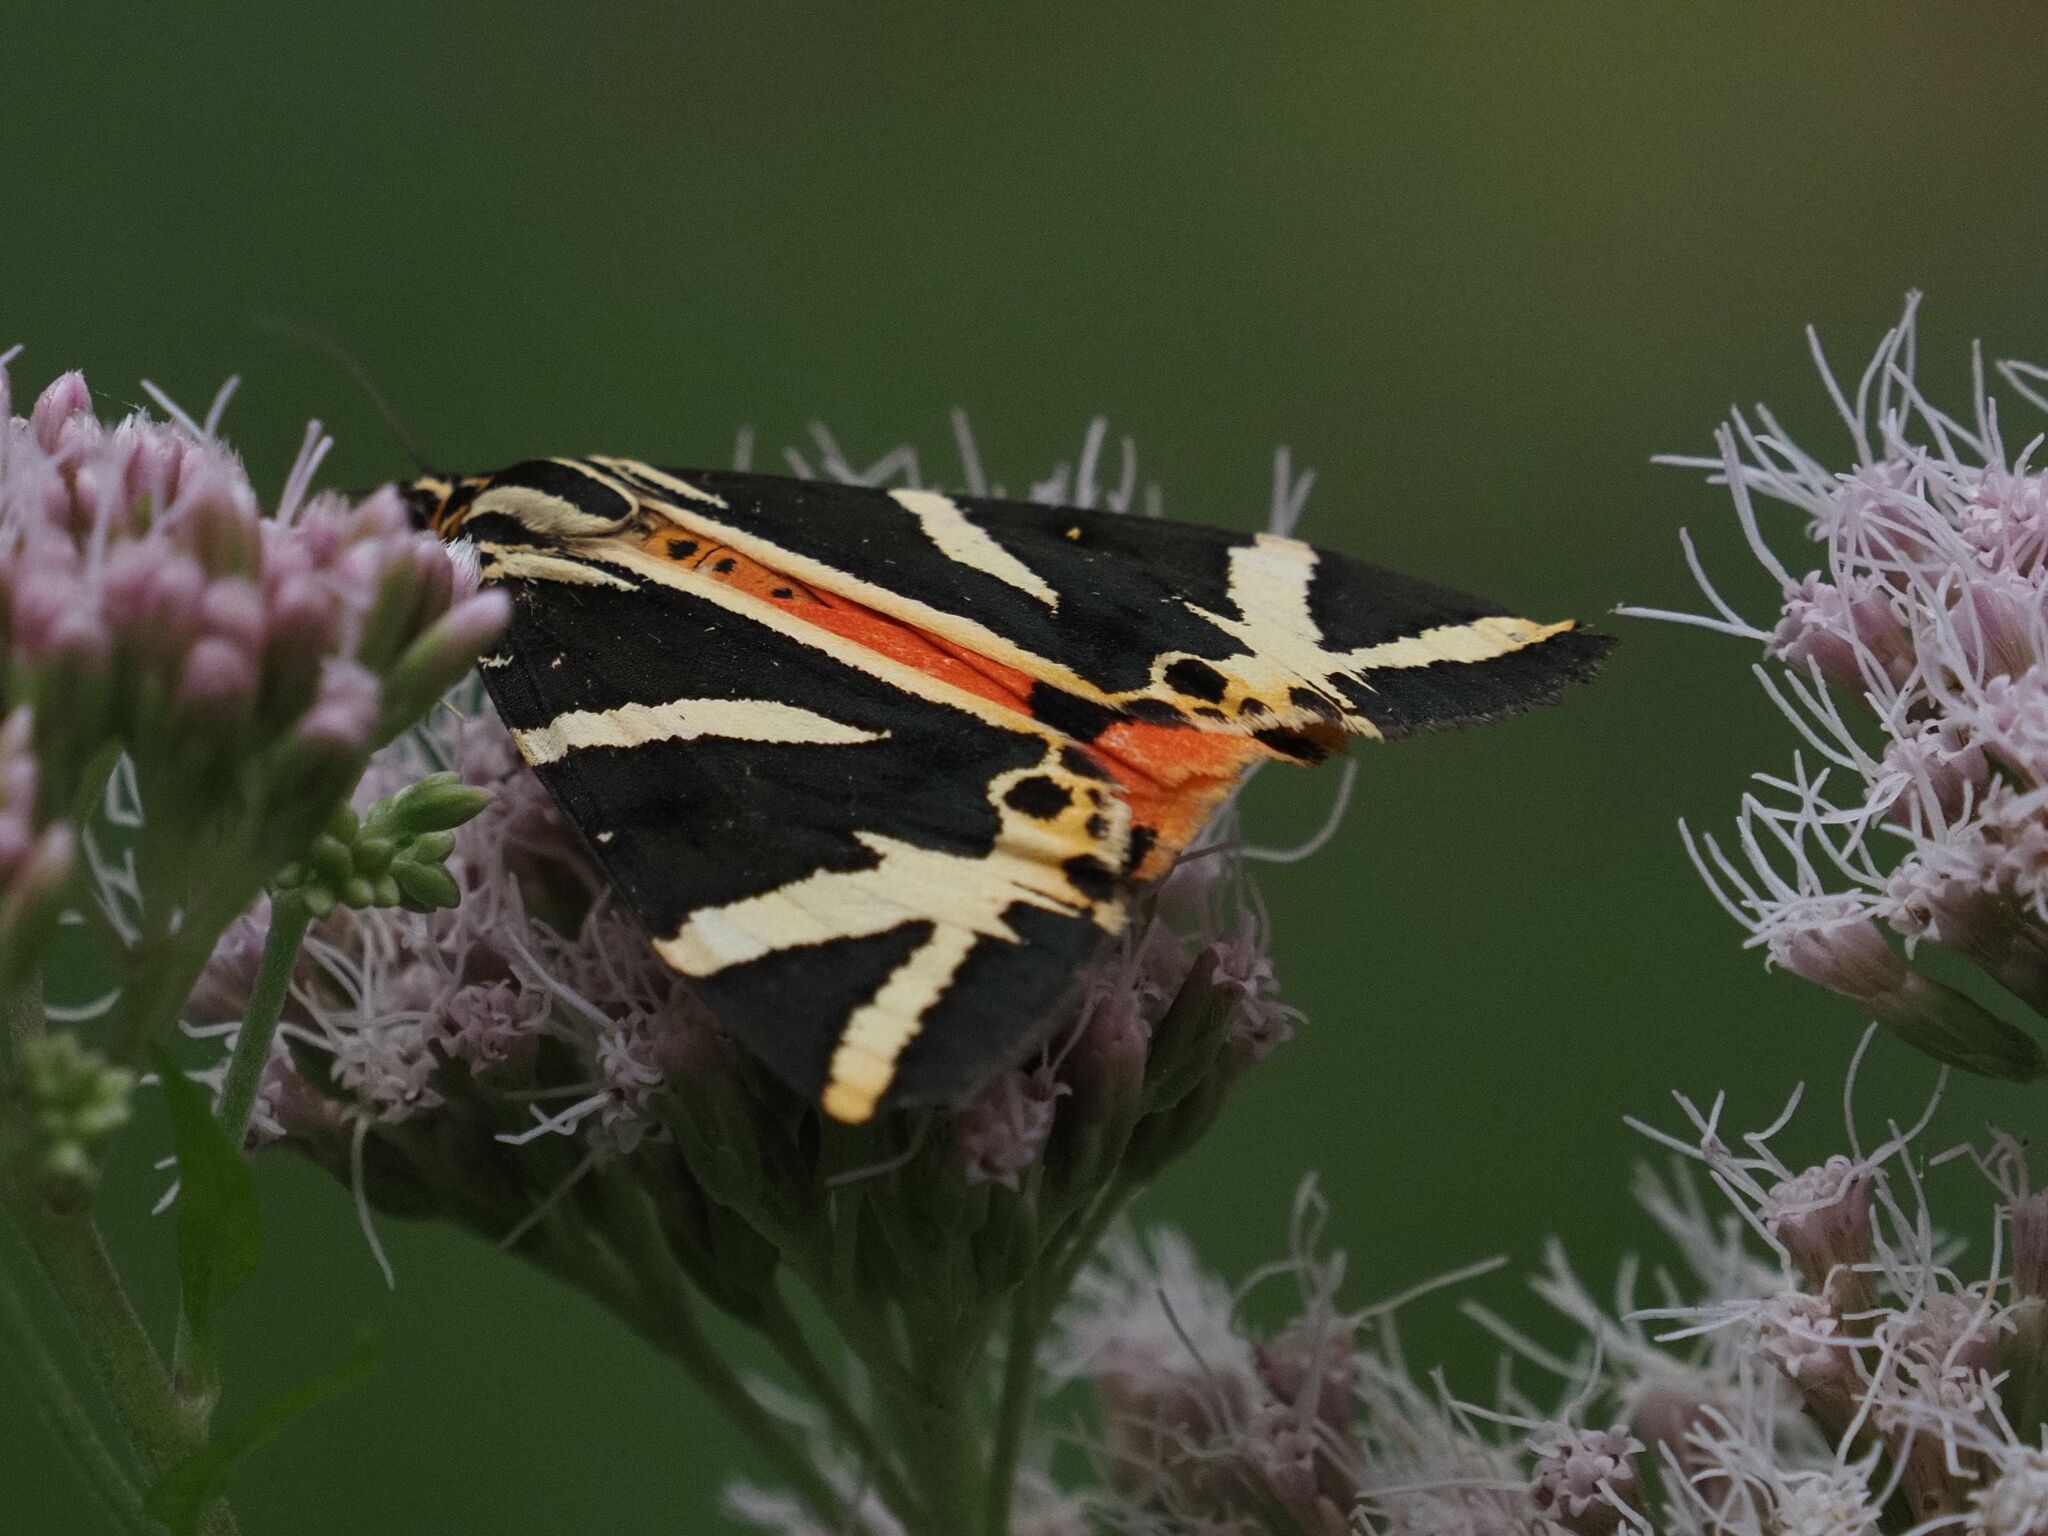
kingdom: Animalia
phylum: Arthropoda
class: Insecta
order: Lepidoptera
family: Erebidae
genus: Euplagia
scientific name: Euplagia quadripunctaria
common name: Jersey tiger
